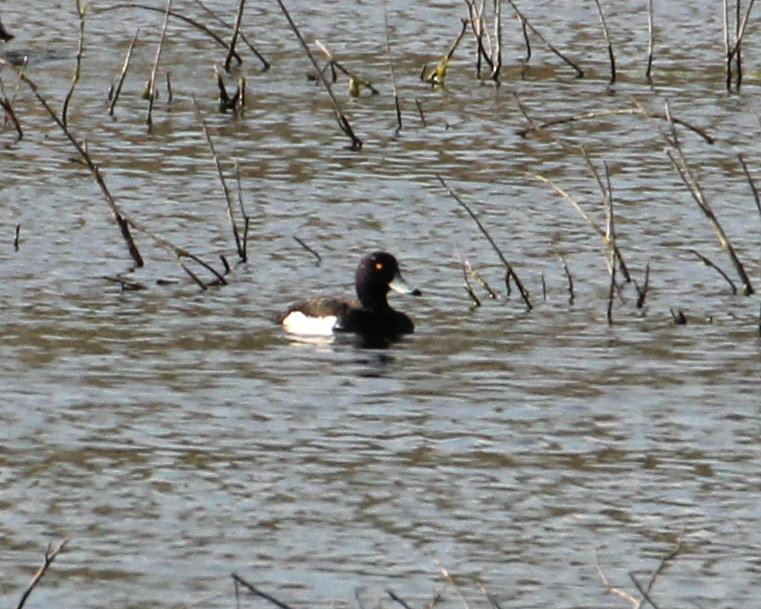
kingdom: Animalia
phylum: Chordata
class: Aves
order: Anseriformes
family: Anatidae
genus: Aythya
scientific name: Aythya fuligula
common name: Tufted duck
